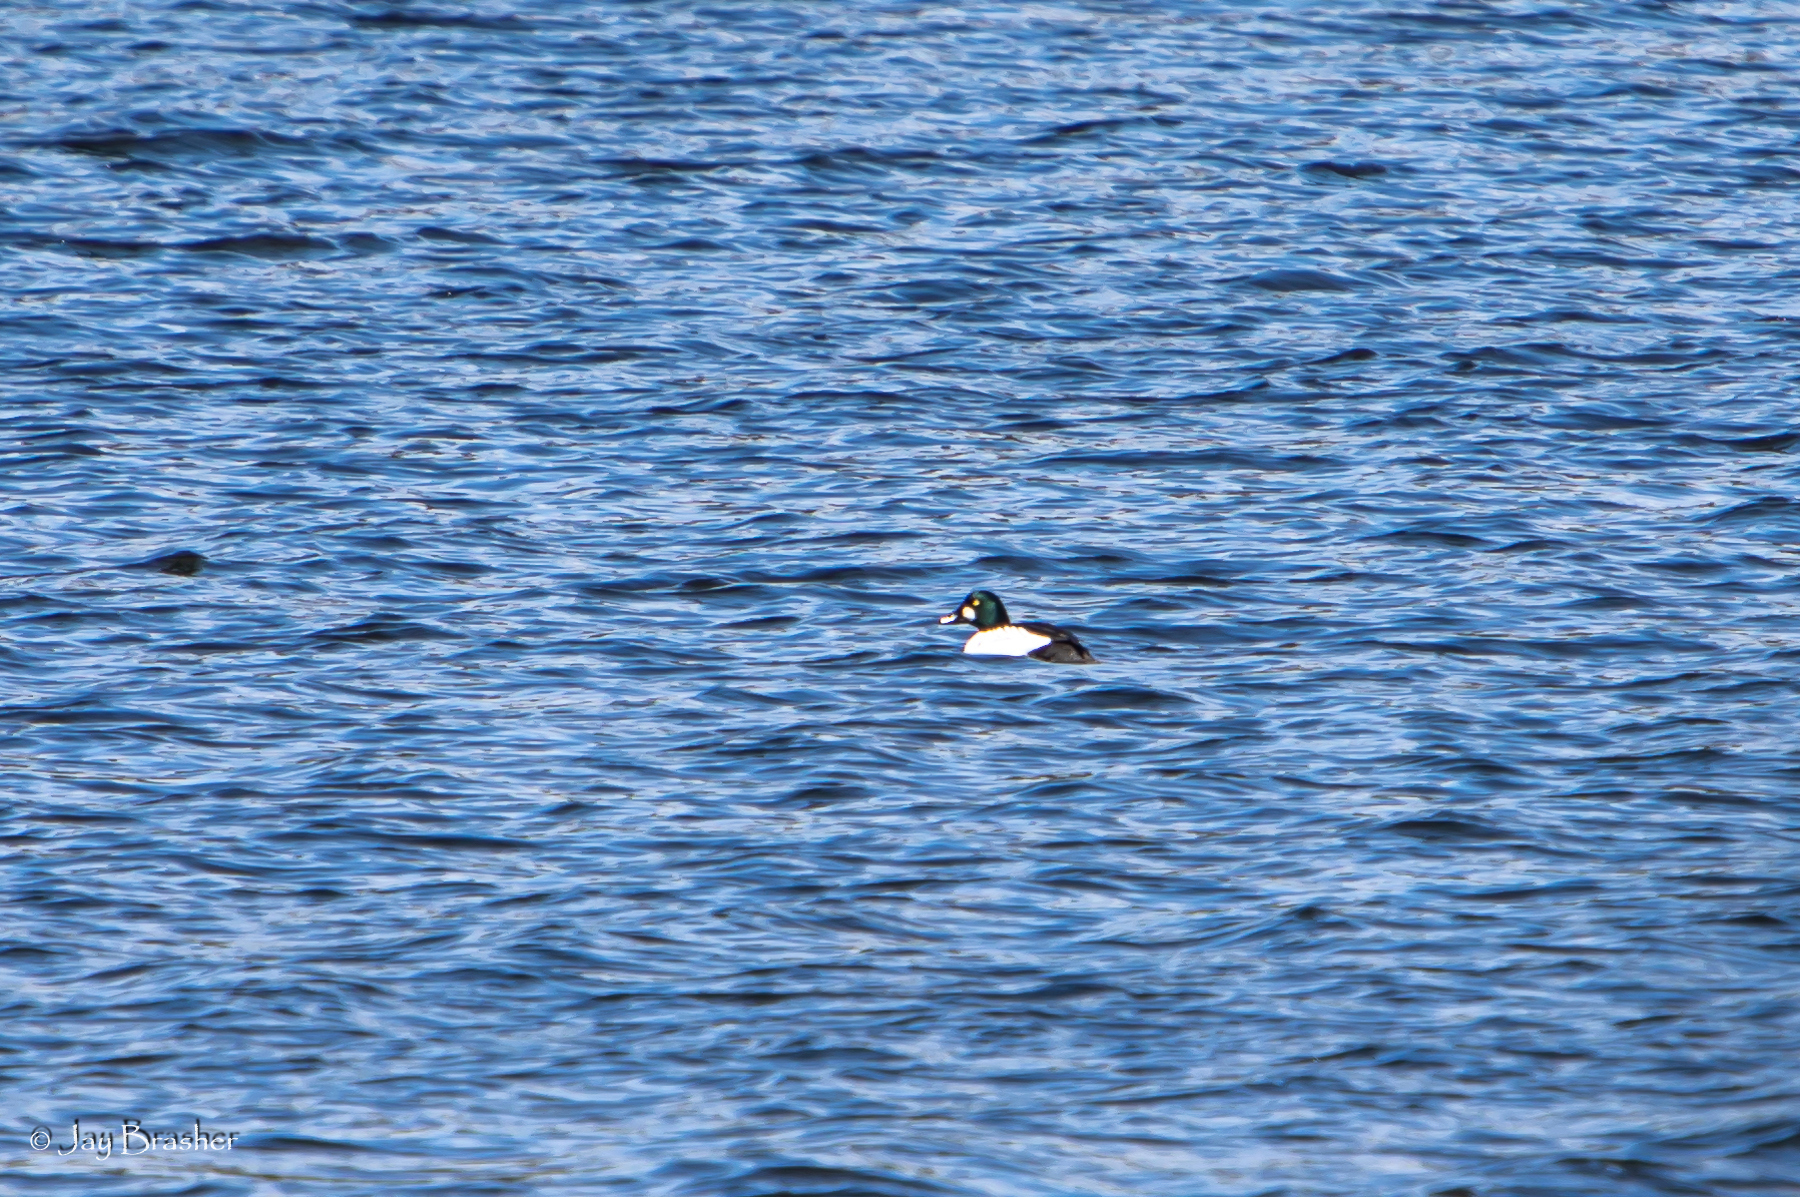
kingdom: Animalia
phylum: Chordata
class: Aves
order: Anseriformes
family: Anatidae
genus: Bucephala
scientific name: Bucephala clangula
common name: Common goldeneye
